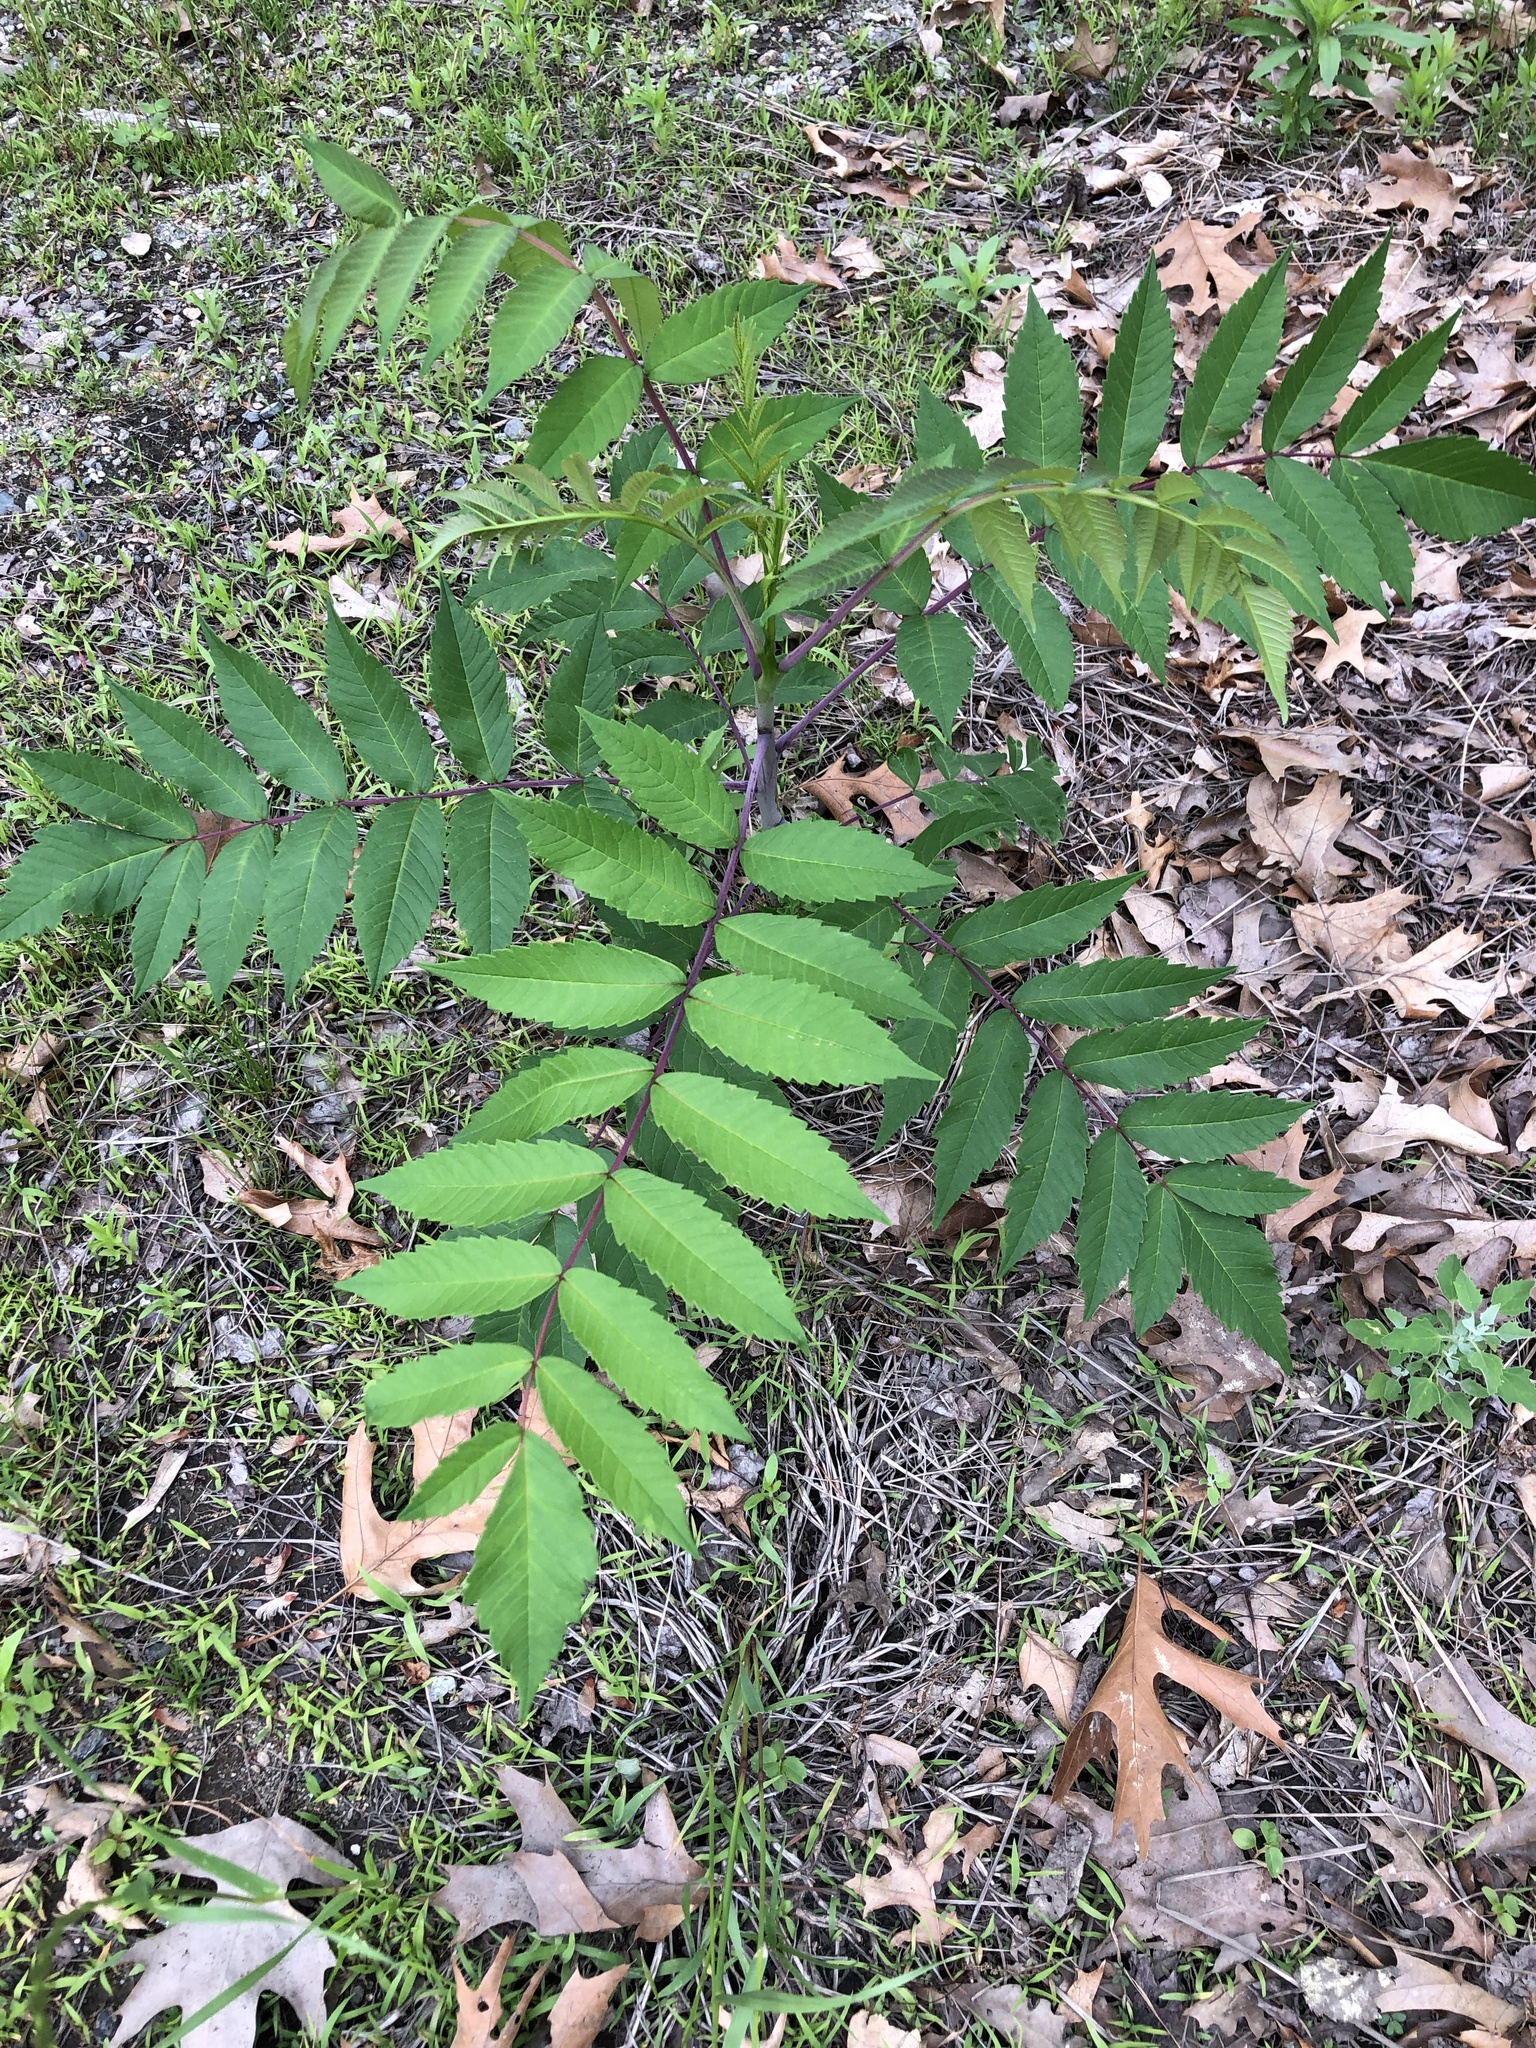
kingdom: Plantae
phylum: Tracheophyta
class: Magnoliopsida
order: Sapindales
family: Anacardiaceae
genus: Rhus
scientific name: Rhus glabra
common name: Scarlet sumac
